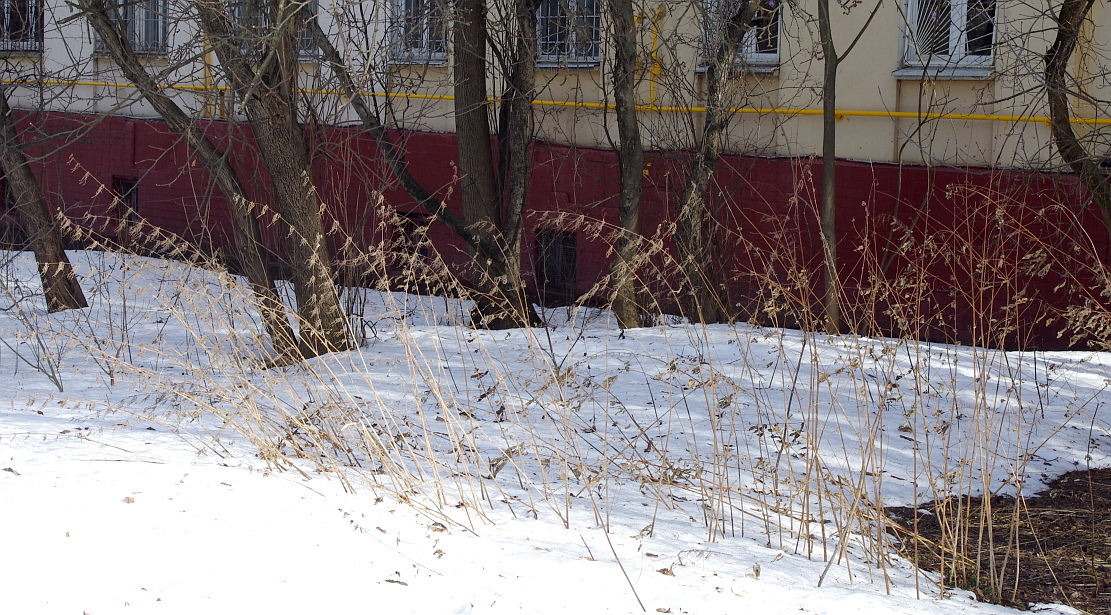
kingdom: Plantae
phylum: Tracheophyta
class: Magnoliopsida
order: Rosales
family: Urticaceae
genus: Urtica
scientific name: Urtica dioica
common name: Common nettle
